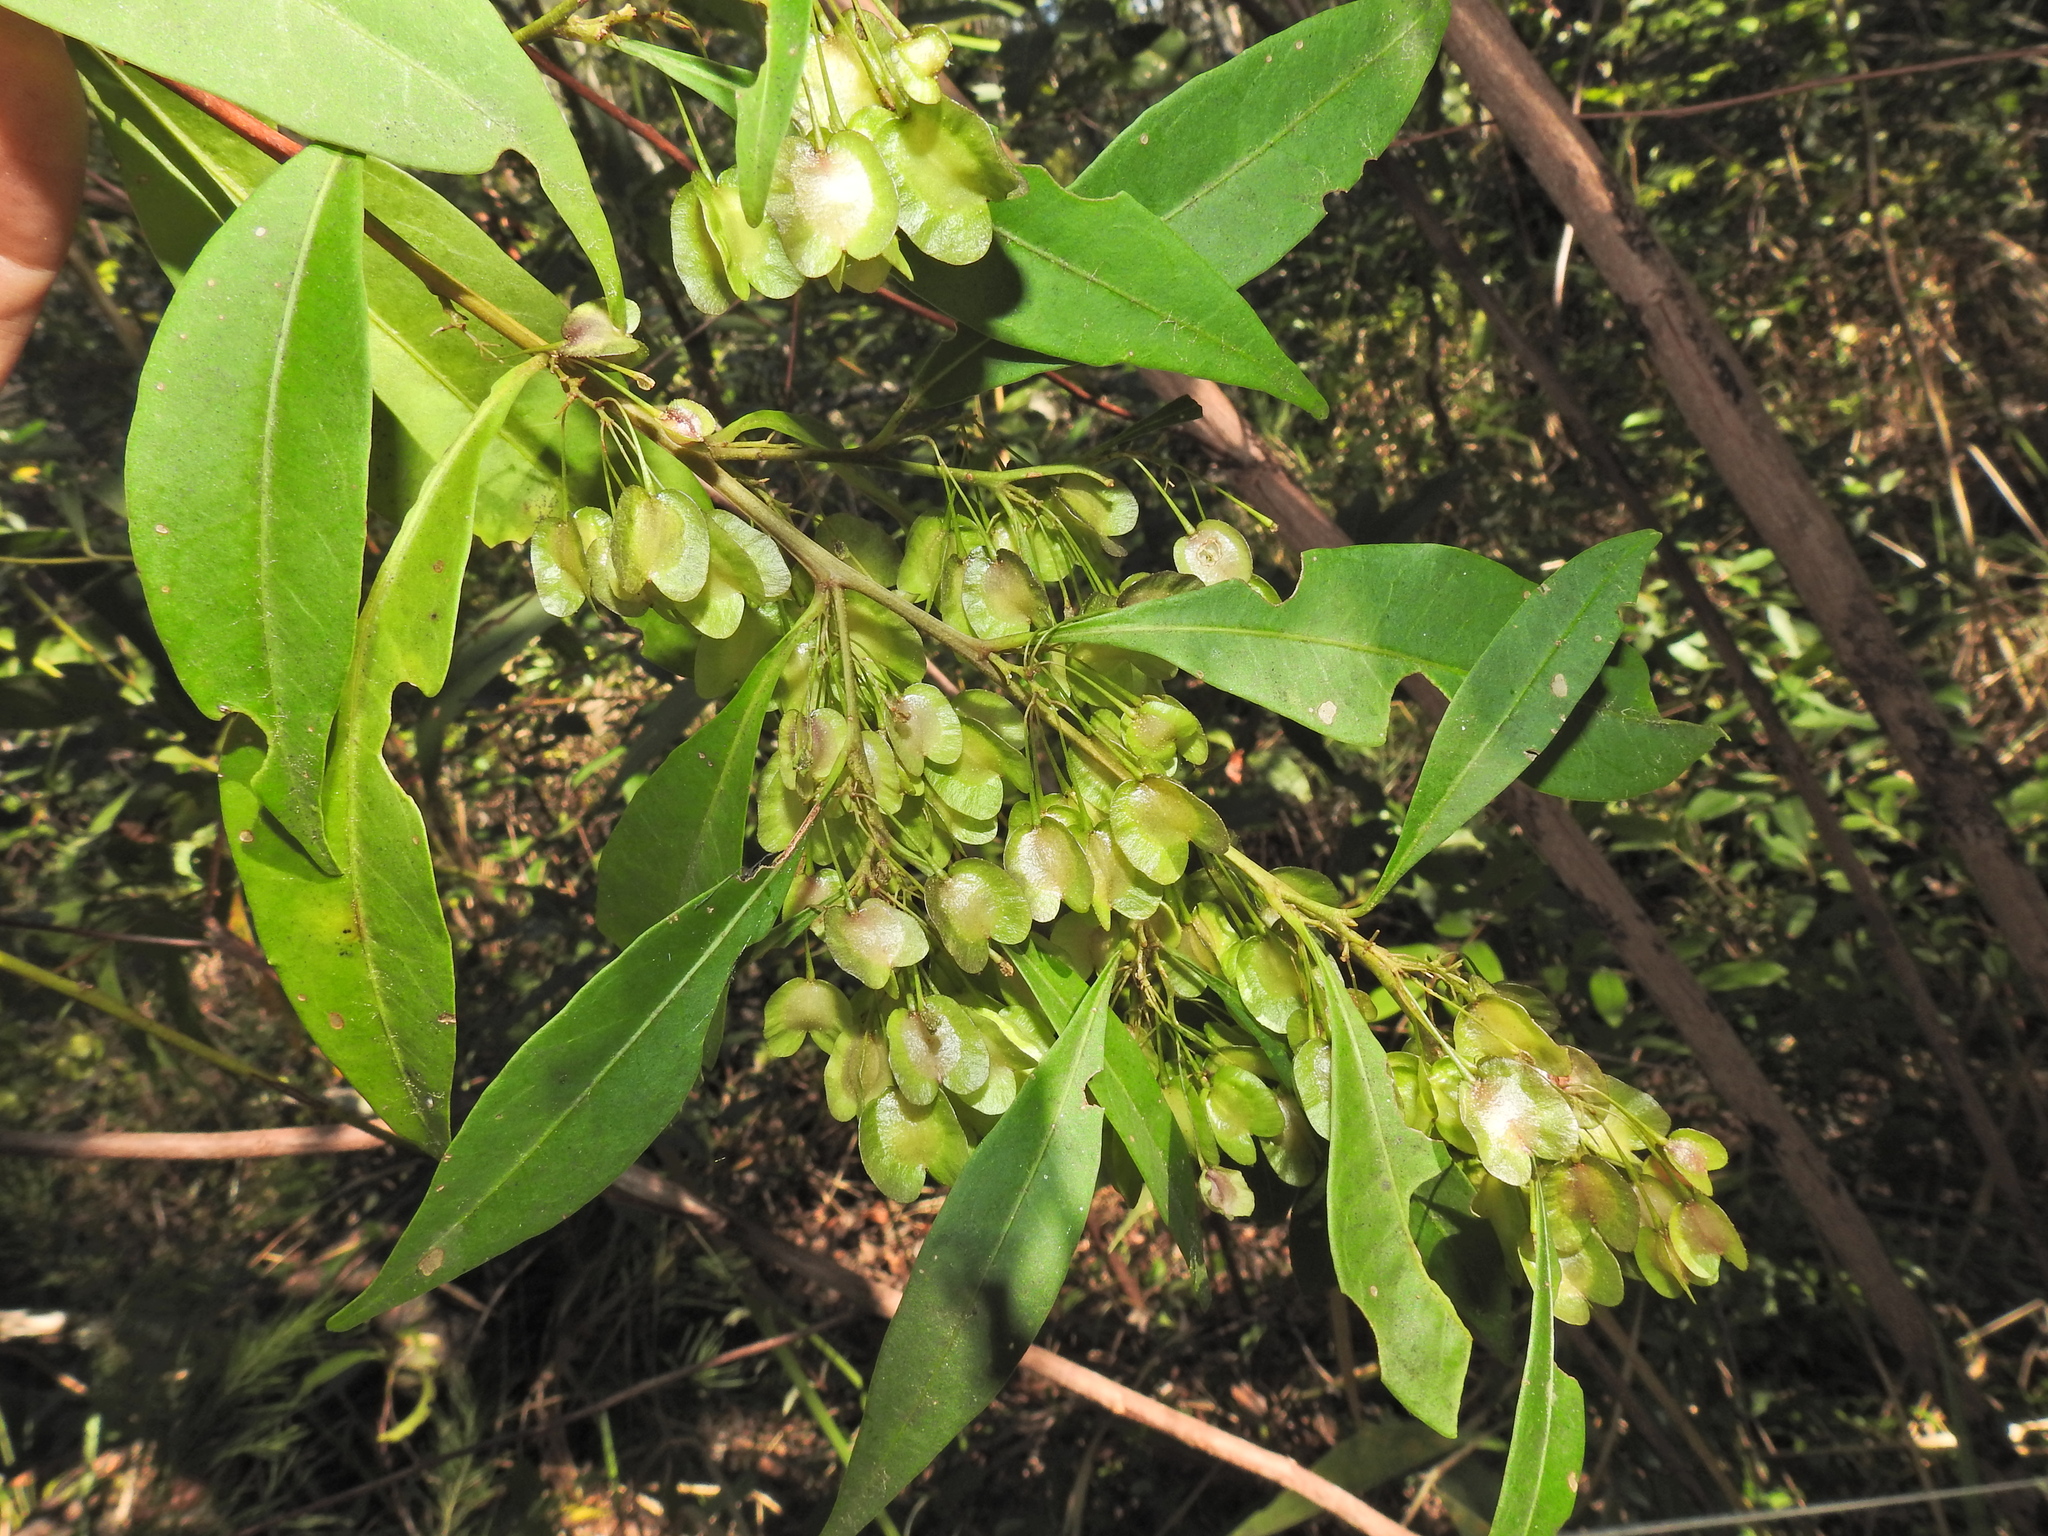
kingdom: Plantae
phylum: Tracheophyta
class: Magnoliopsida
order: Sapindales
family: Sapindaceae
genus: Dodonaea
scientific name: Dodonaea triquetra
